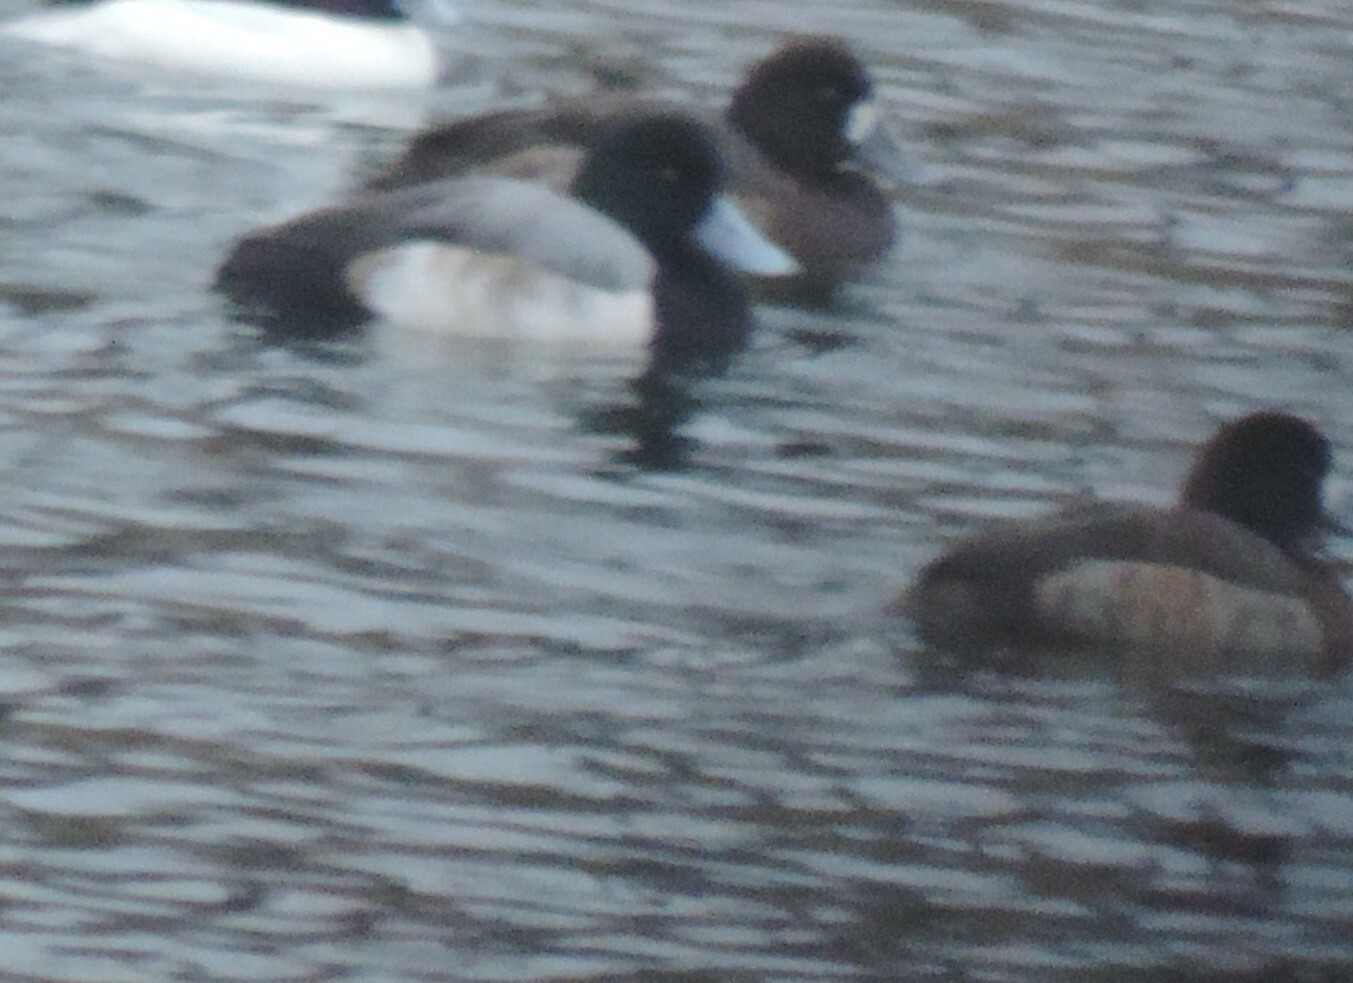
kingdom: Animalia
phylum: Chordata
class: Aves
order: Anseriformes
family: Anatidae
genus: Aythya
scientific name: Aythya marila
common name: Greater scaup
